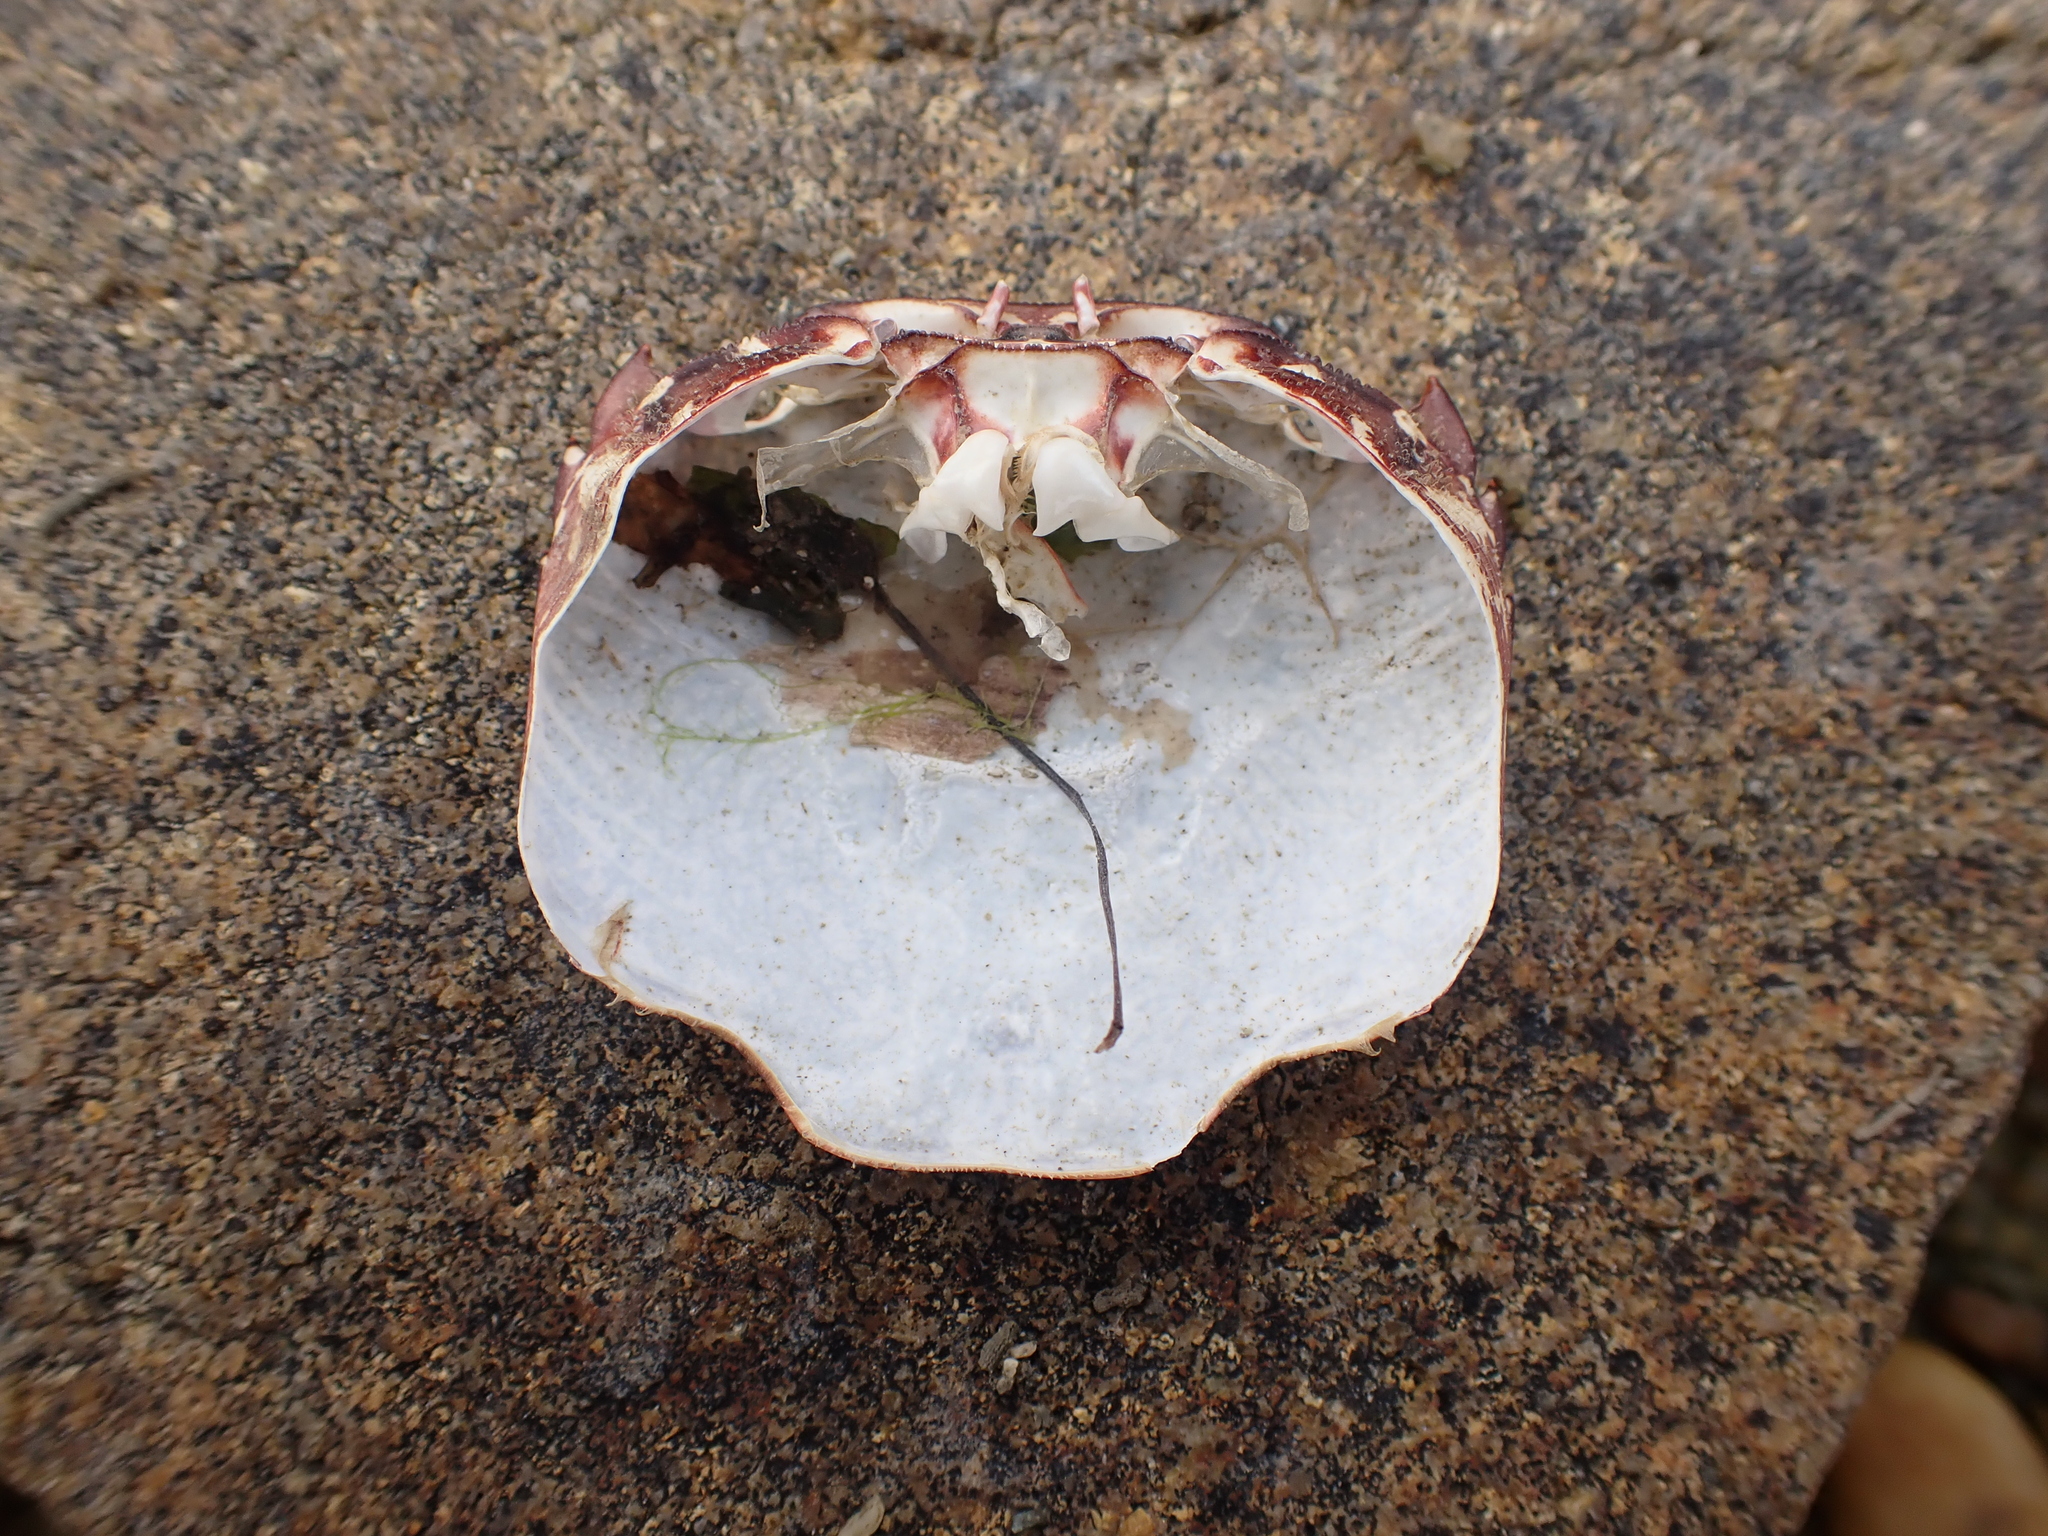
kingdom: Animalia
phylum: Arthropoda
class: Malacostraca
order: Decapoda
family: Grapsidae
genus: Pachygrapsus
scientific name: Pachygrapsus marmoratus
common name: Marbled rock crab
